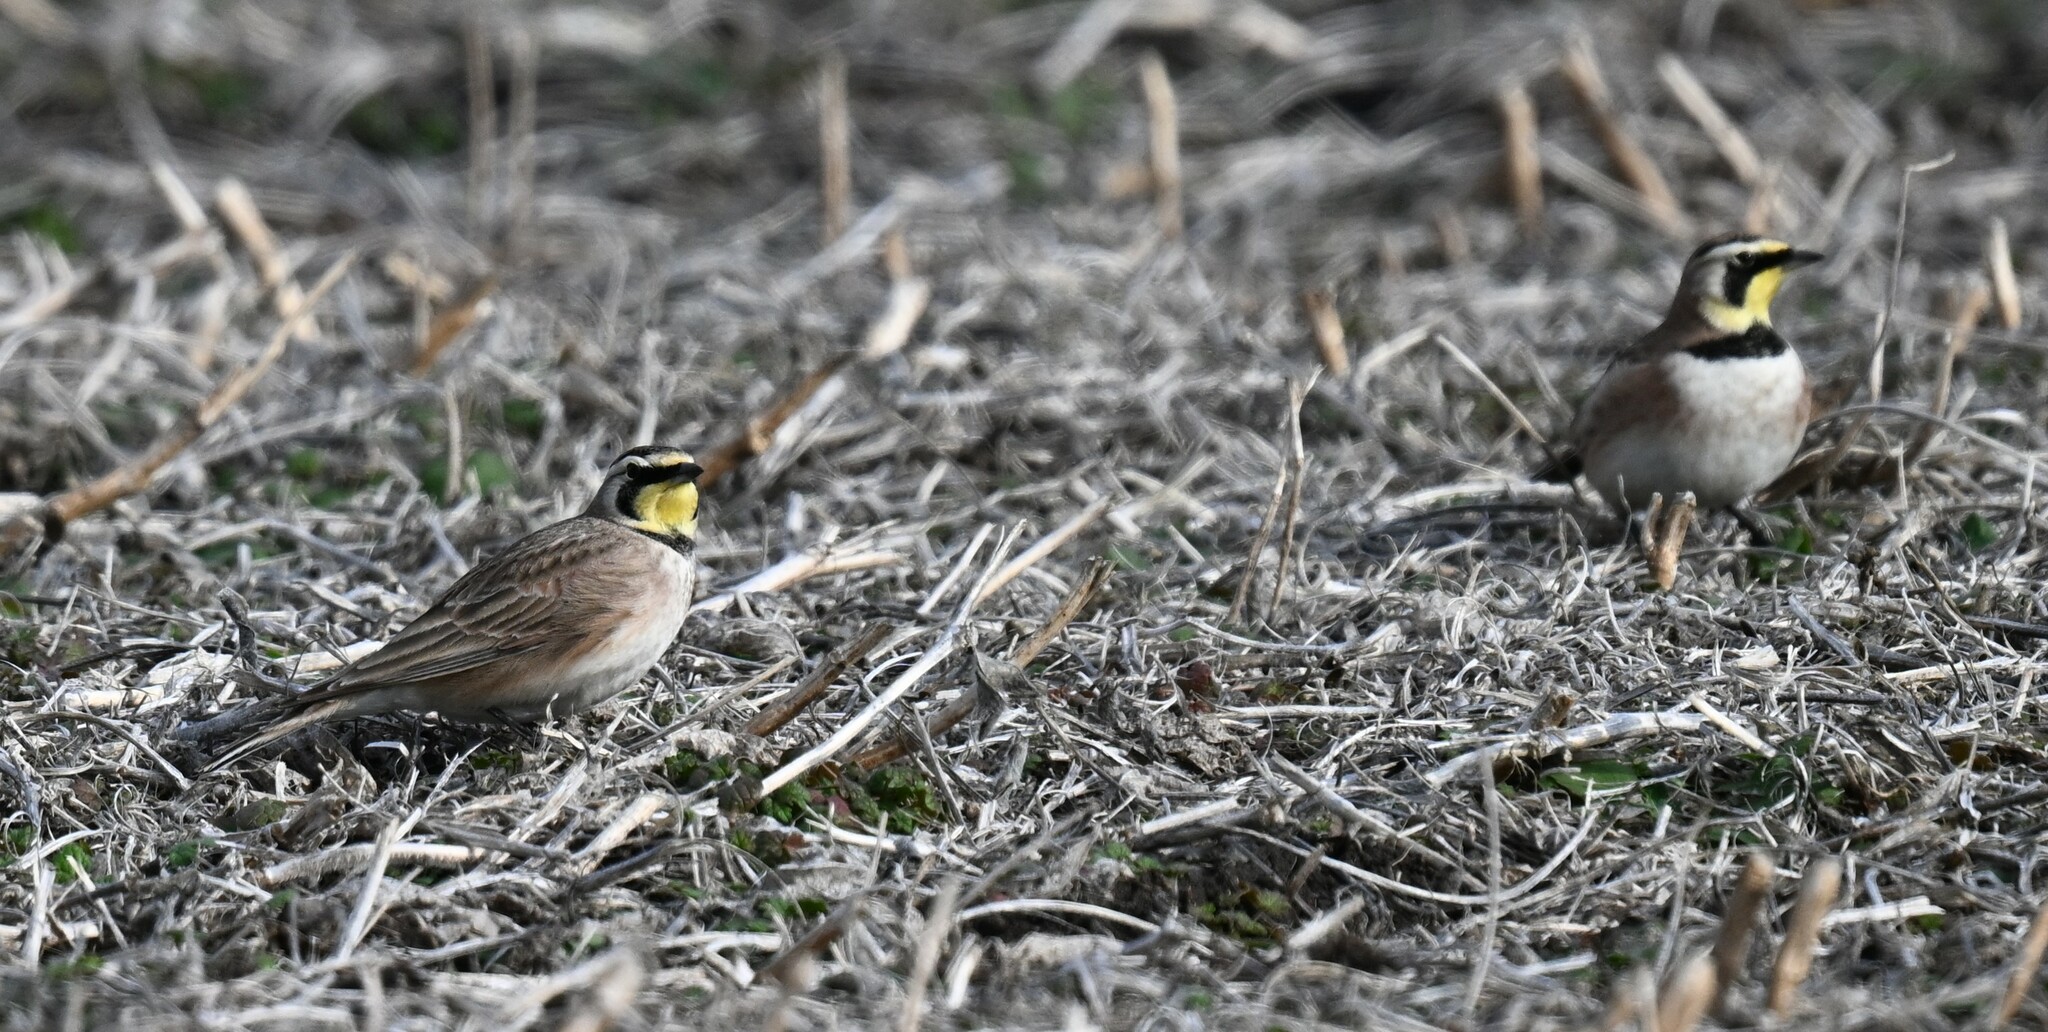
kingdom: Animalia
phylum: Chordata
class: Aves
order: Passeriformes
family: Alaudidae
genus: Eremophila
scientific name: Eremophila alpestris
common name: Horned lark
